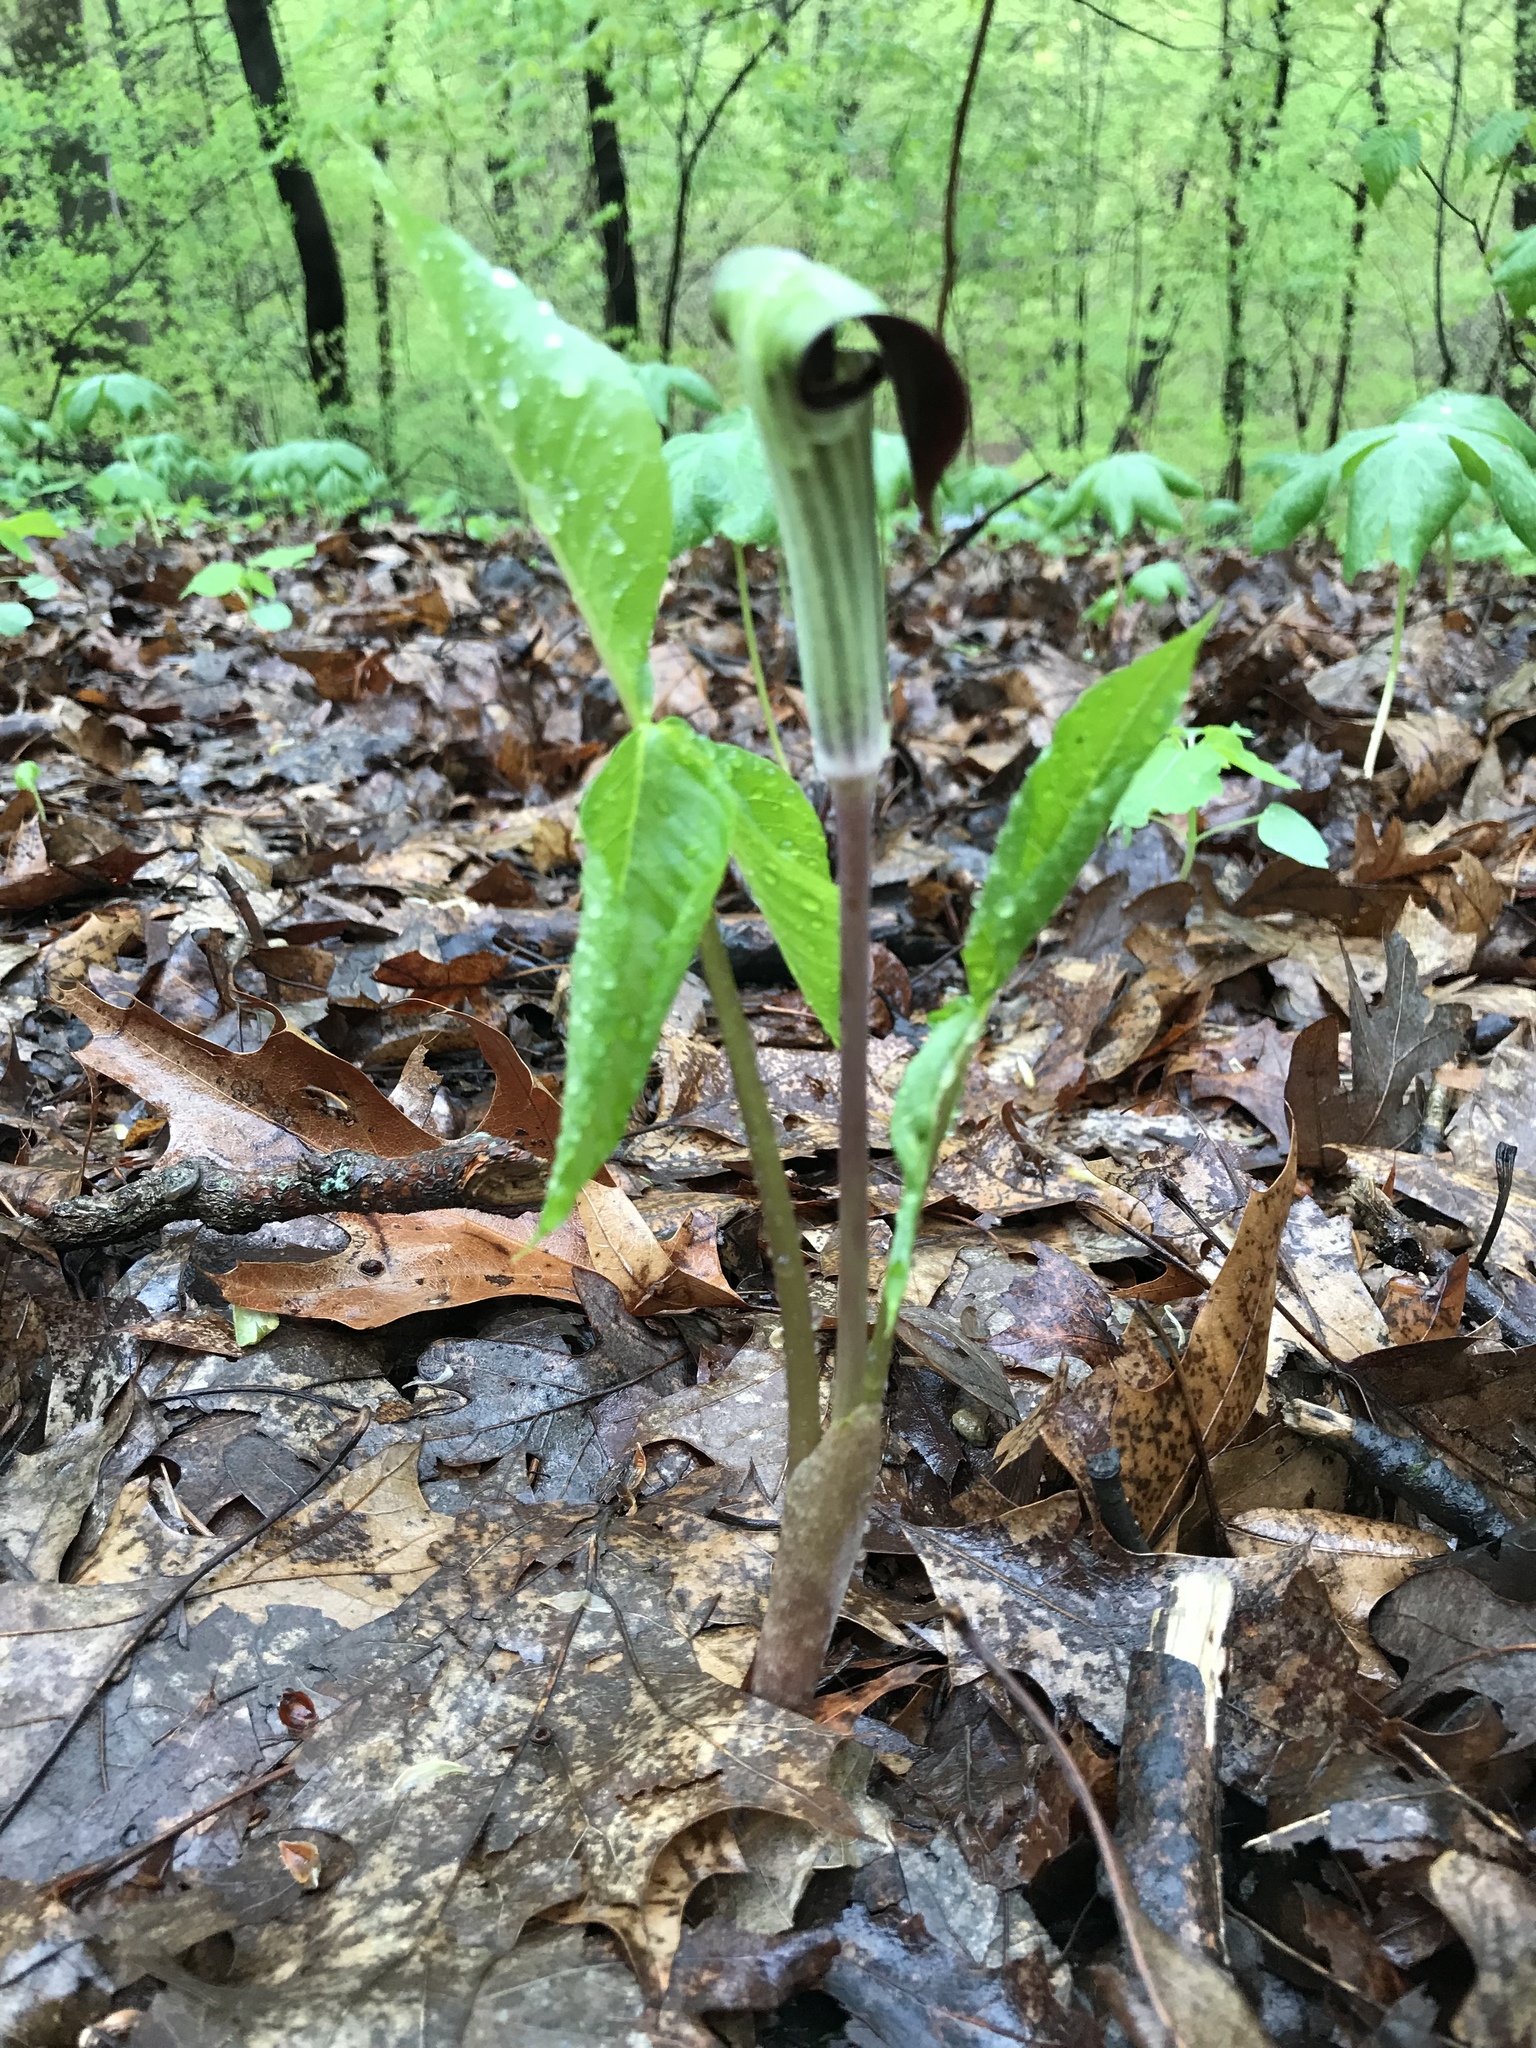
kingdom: Plantae
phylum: Tracheophyta
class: Liliopsida
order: Alismatales
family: Araceae
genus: Arisaema
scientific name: Arisaema triphyllum
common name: Jack-in-the-pulpit
